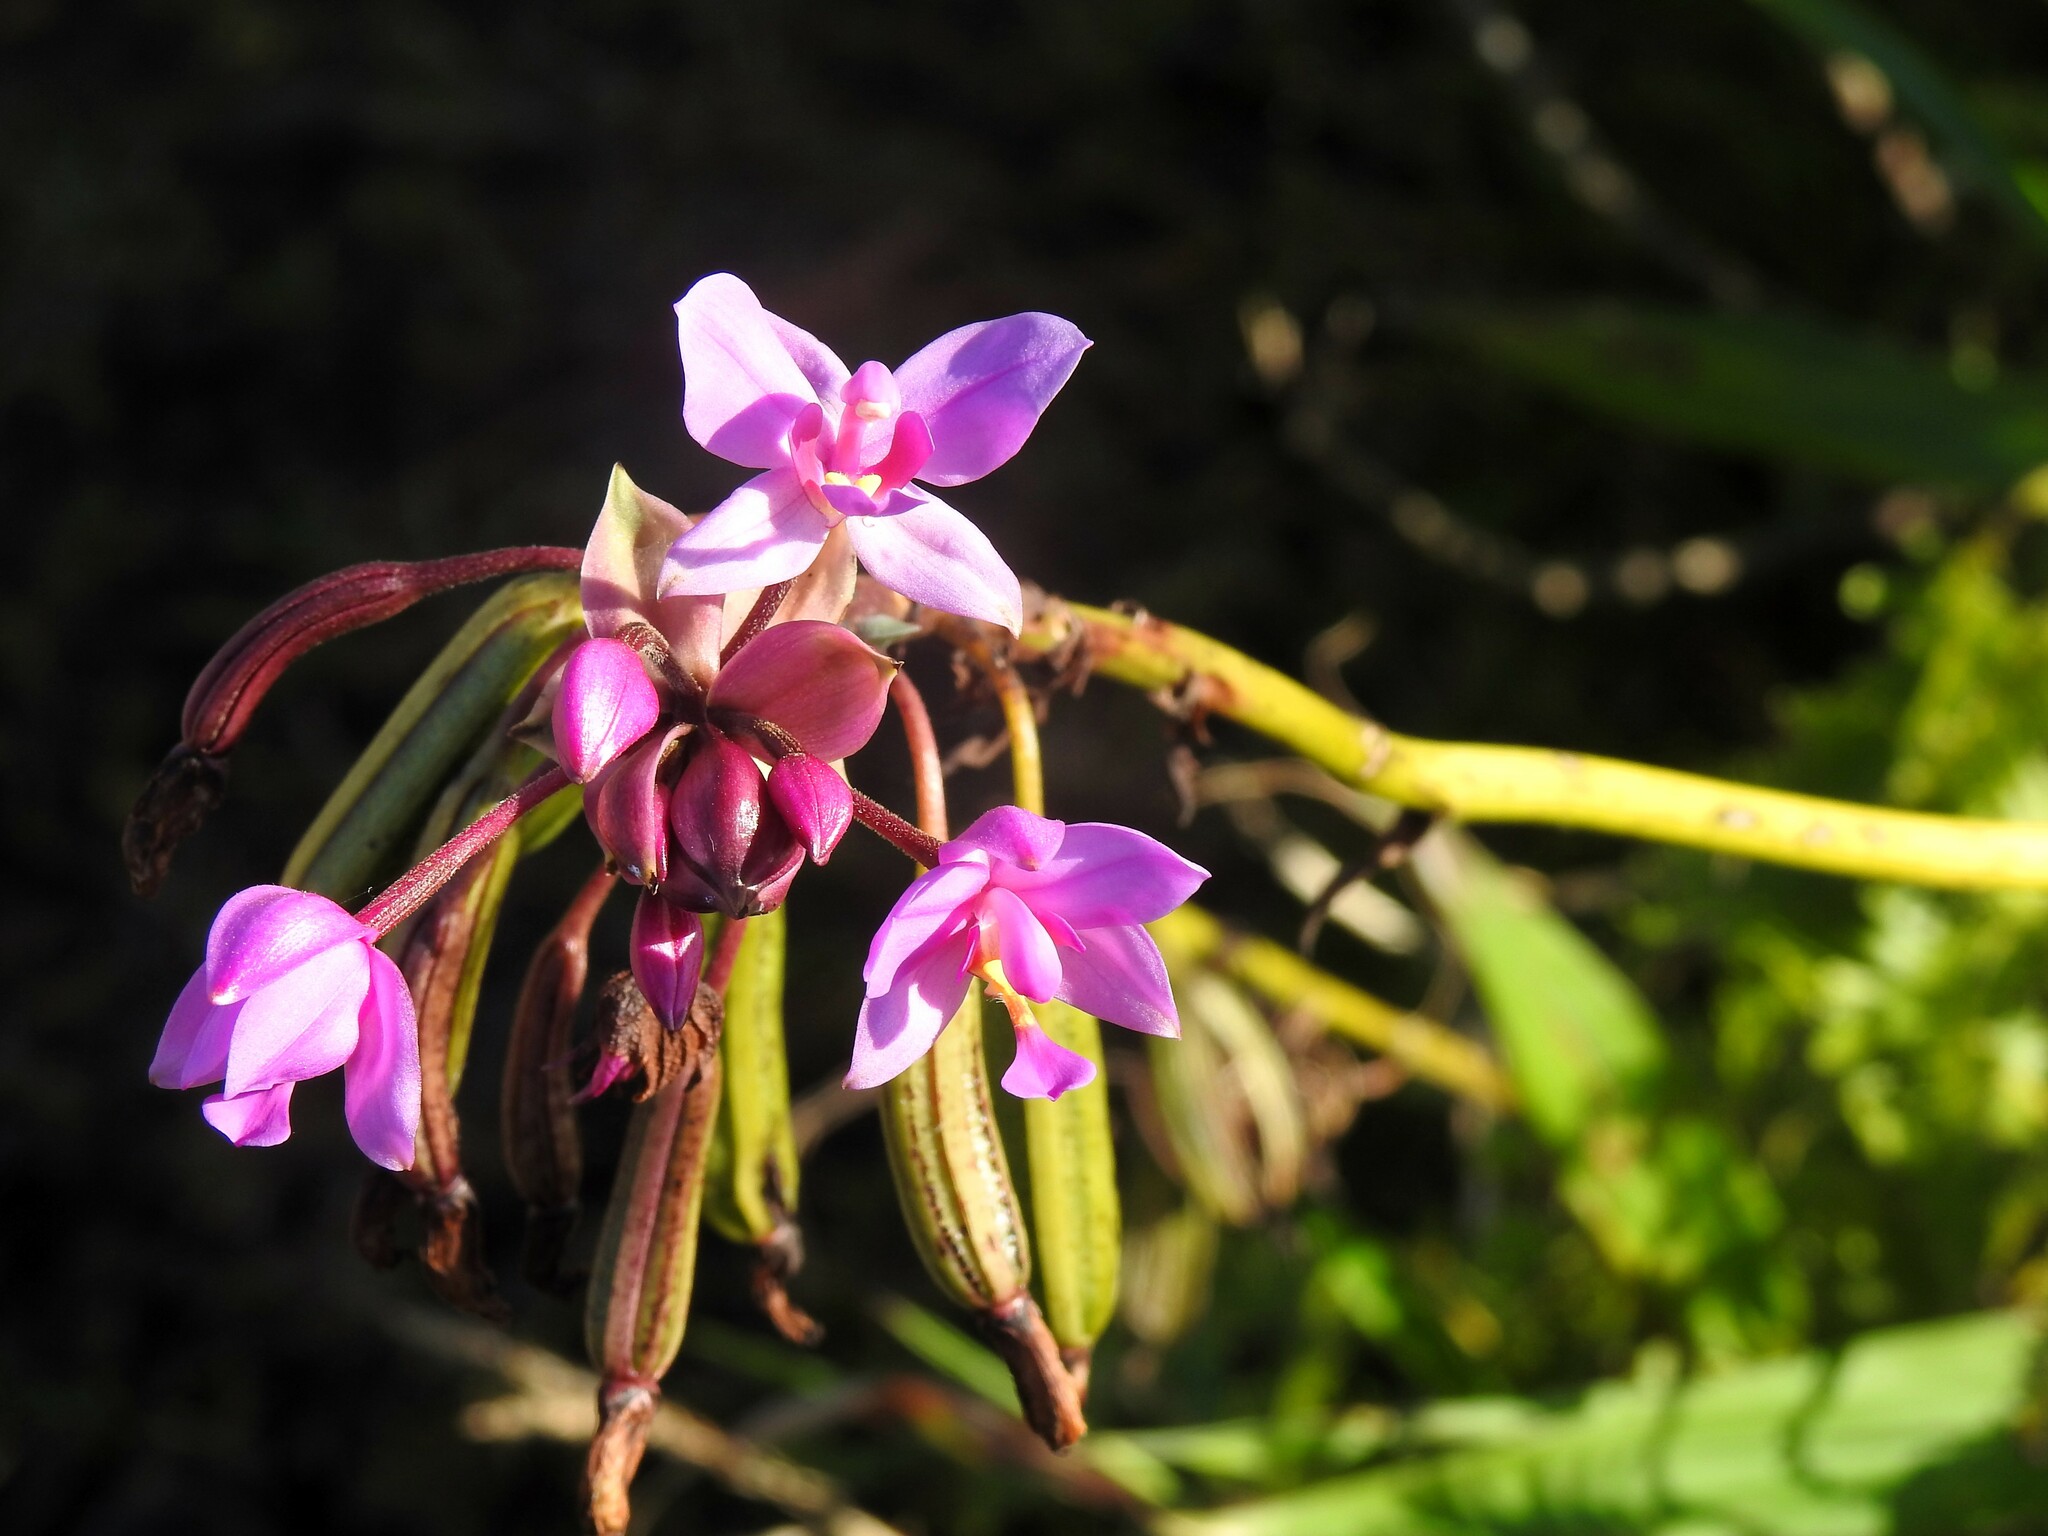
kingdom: Plantae
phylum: Tracheophyta
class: Liliopsida
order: Asparagales
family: Orchidaceae
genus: Spathoglottis
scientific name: Spathoglottis plicata
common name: Philippine ground orchid
